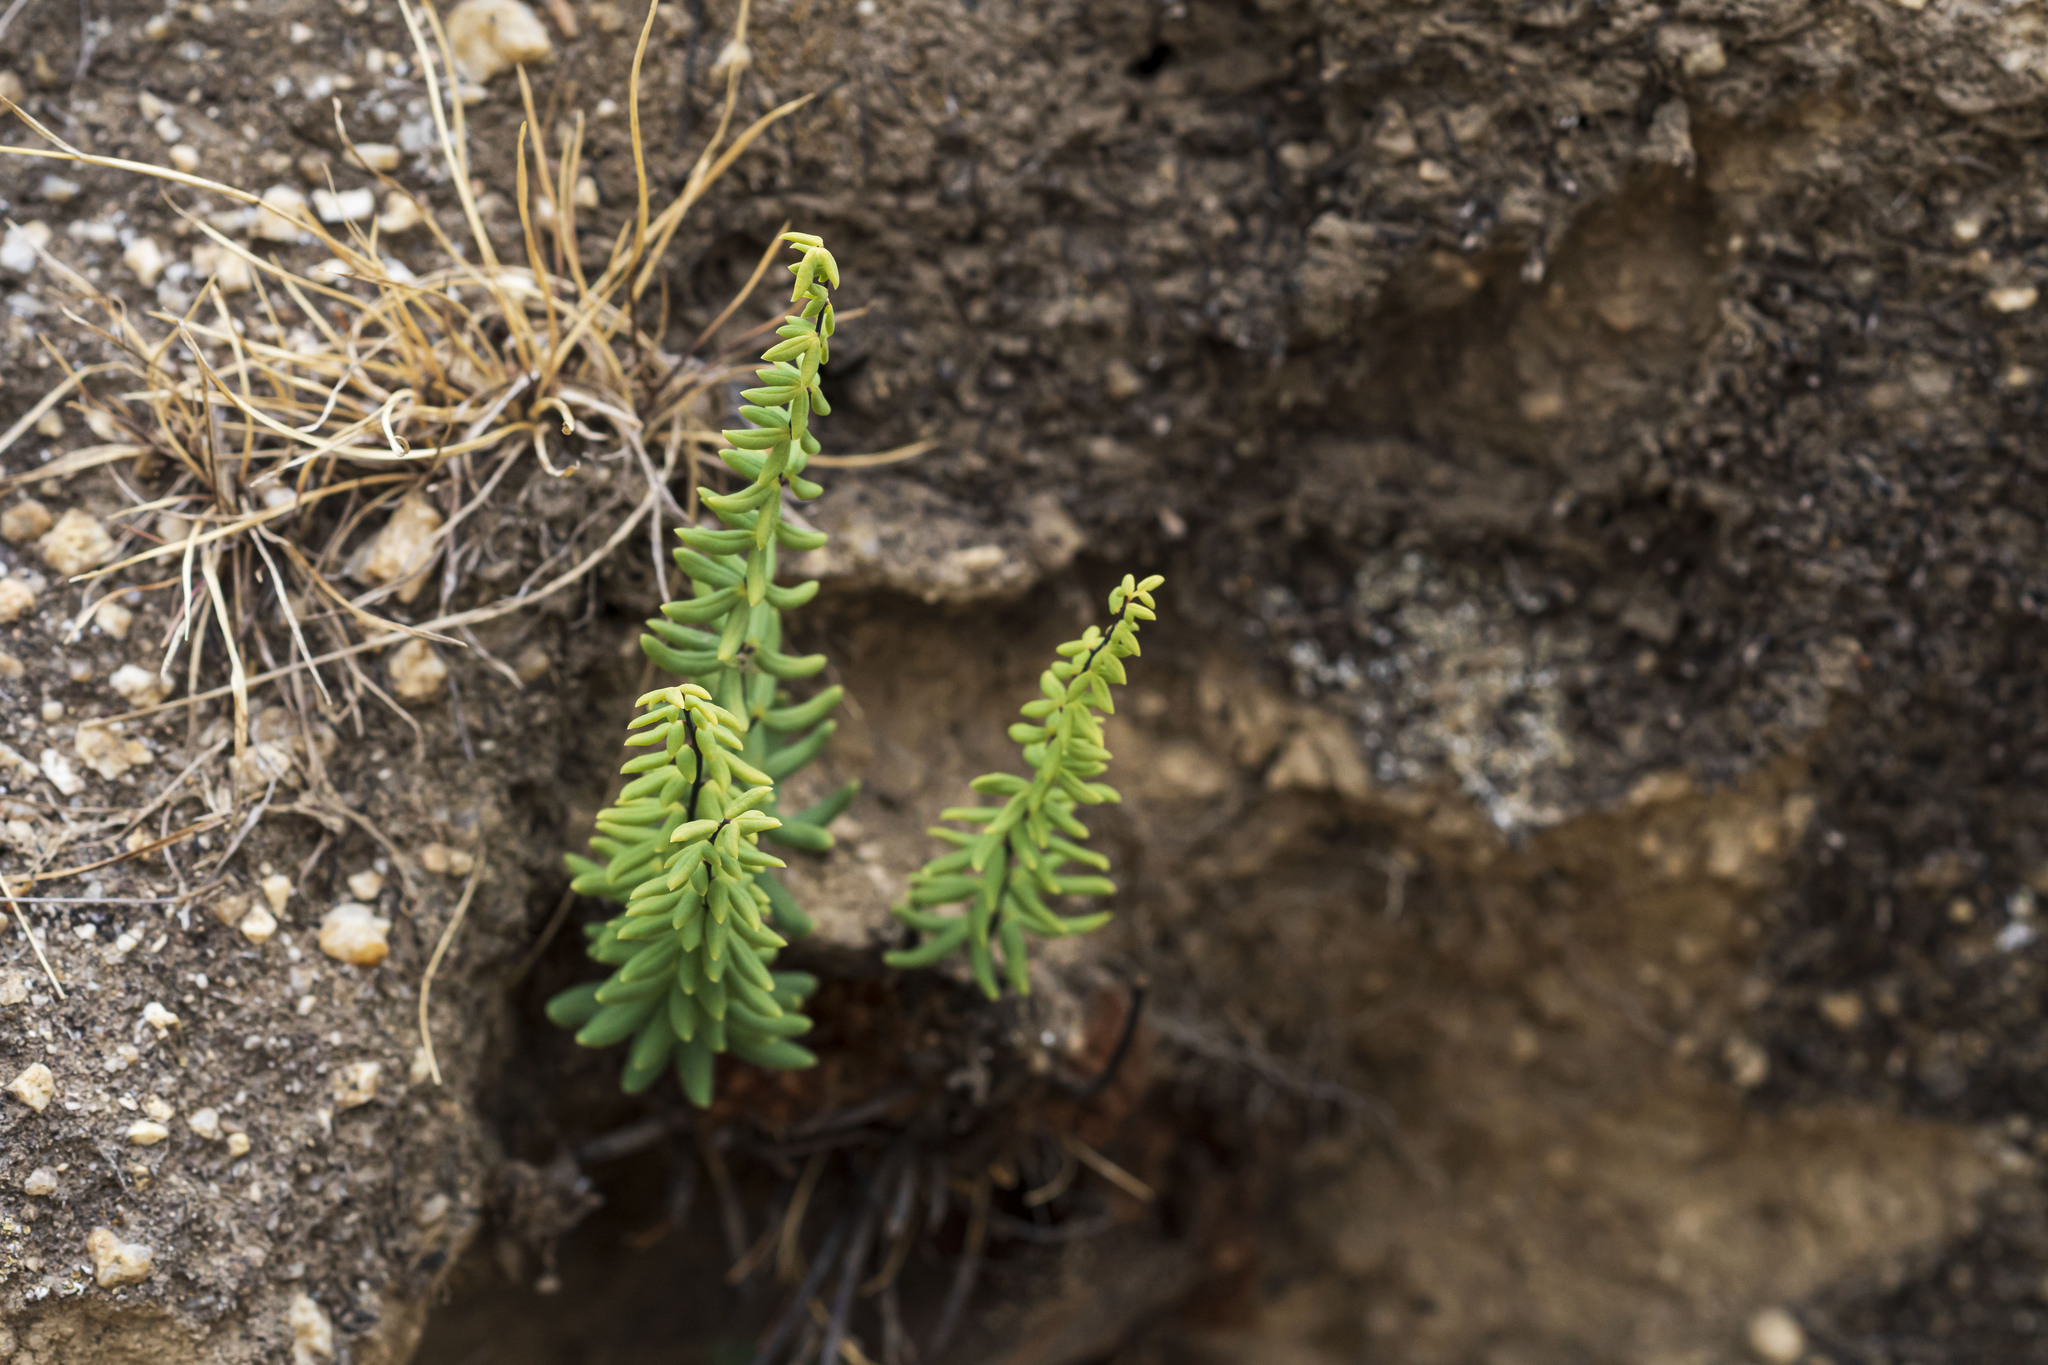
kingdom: Plantae
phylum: Tracheophyta
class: Polypodiopsida
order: Polypodiales
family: Pteridaceae
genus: Pellaea
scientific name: Pellaea ternifolia
